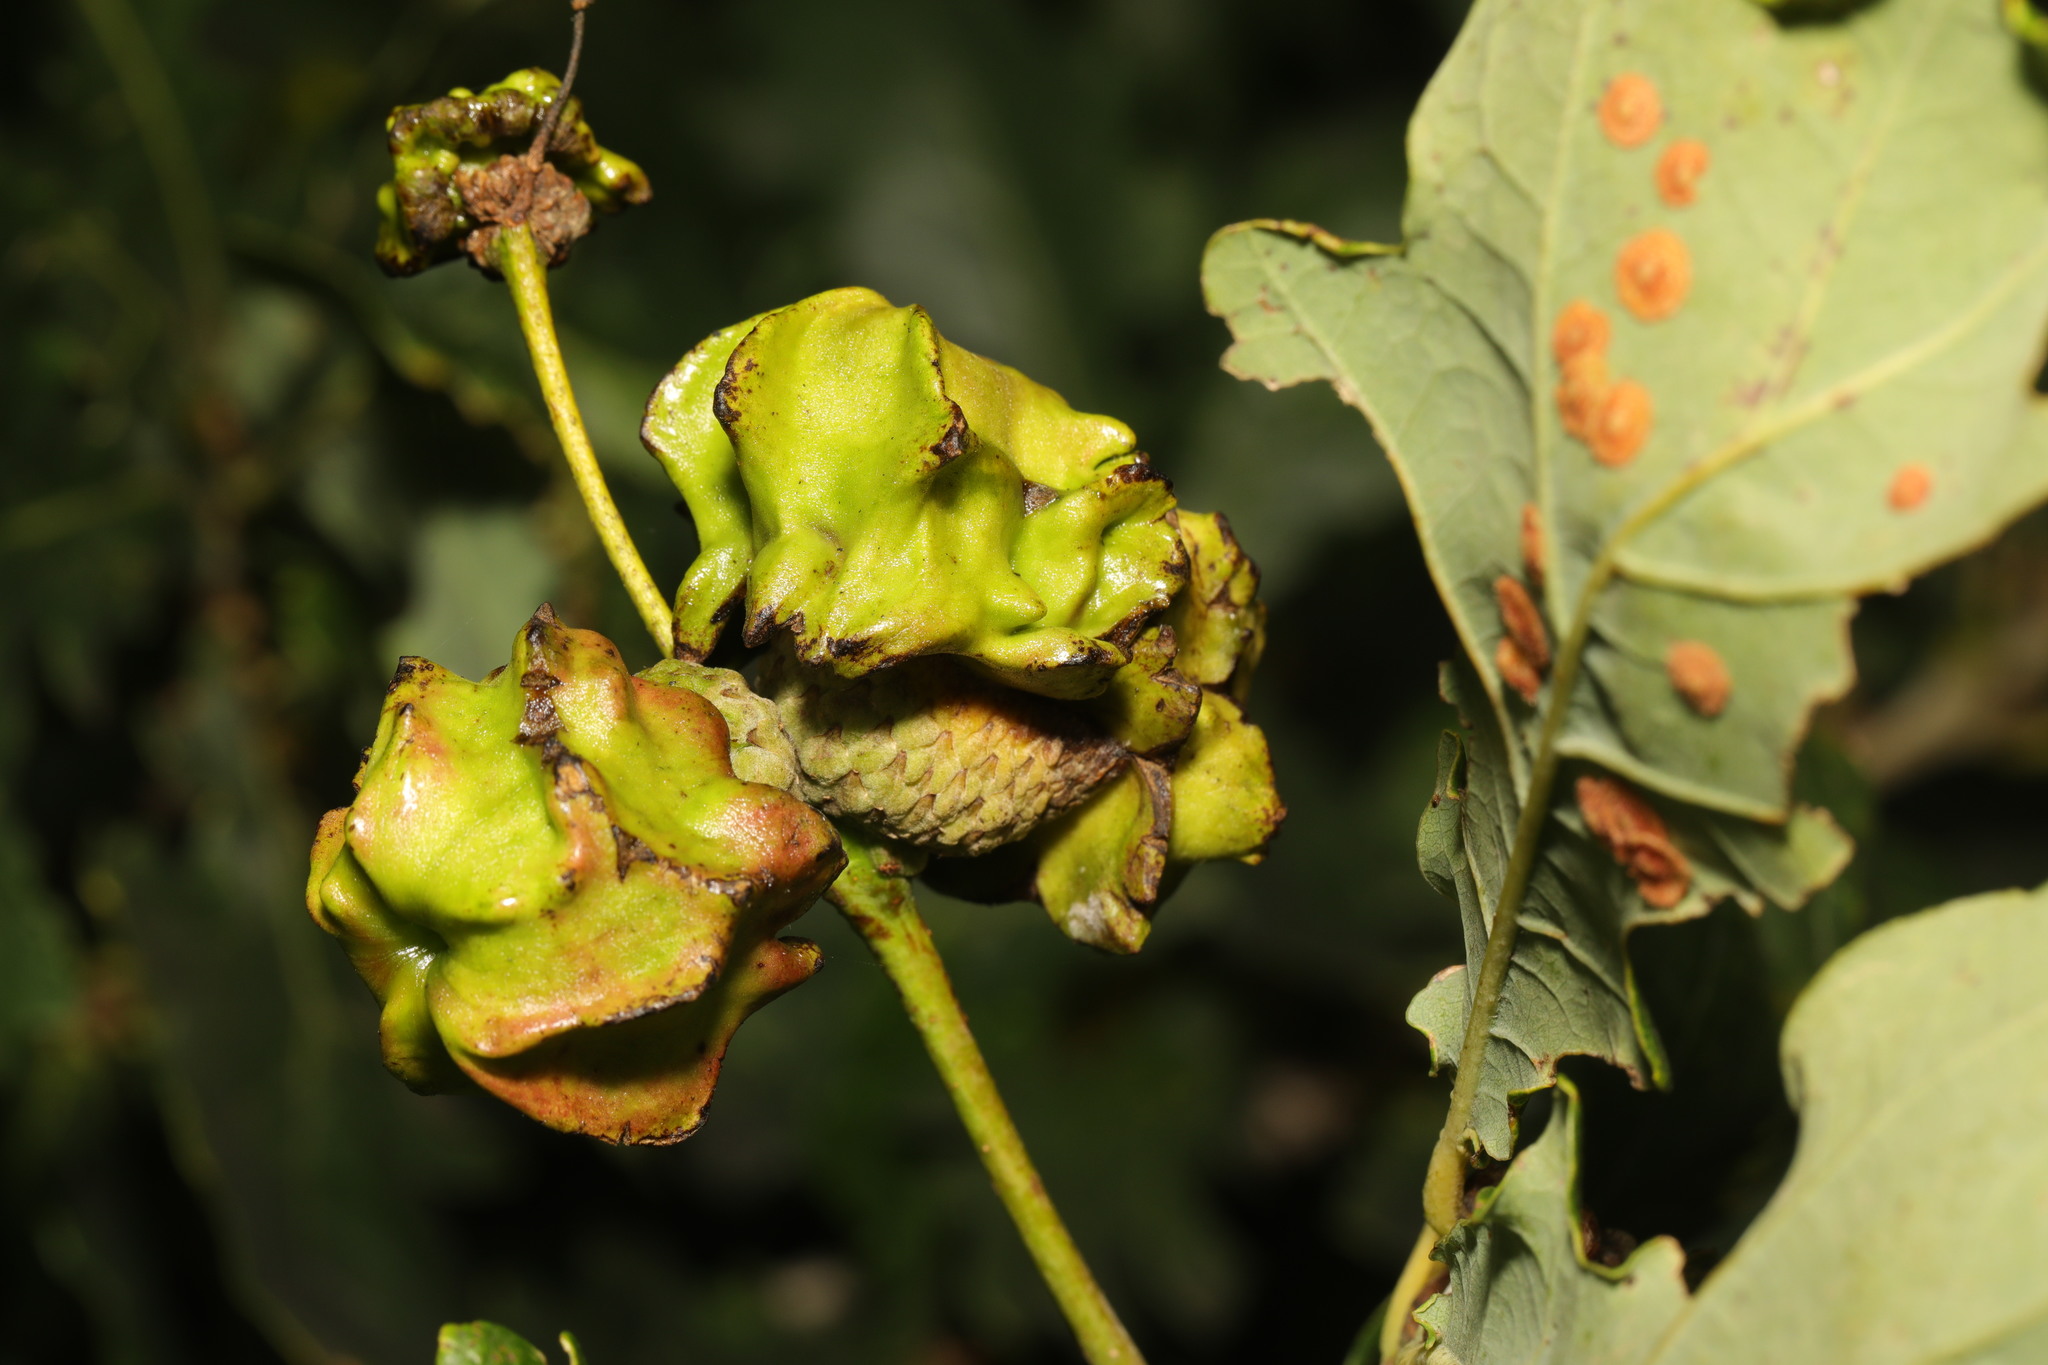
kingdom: Animalia
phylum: Arthropoda
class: Insecta
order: Hymenoptera
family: Cynipidae
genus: Andricus
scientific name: Andricus quercuscalicis
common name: Knopper gall
